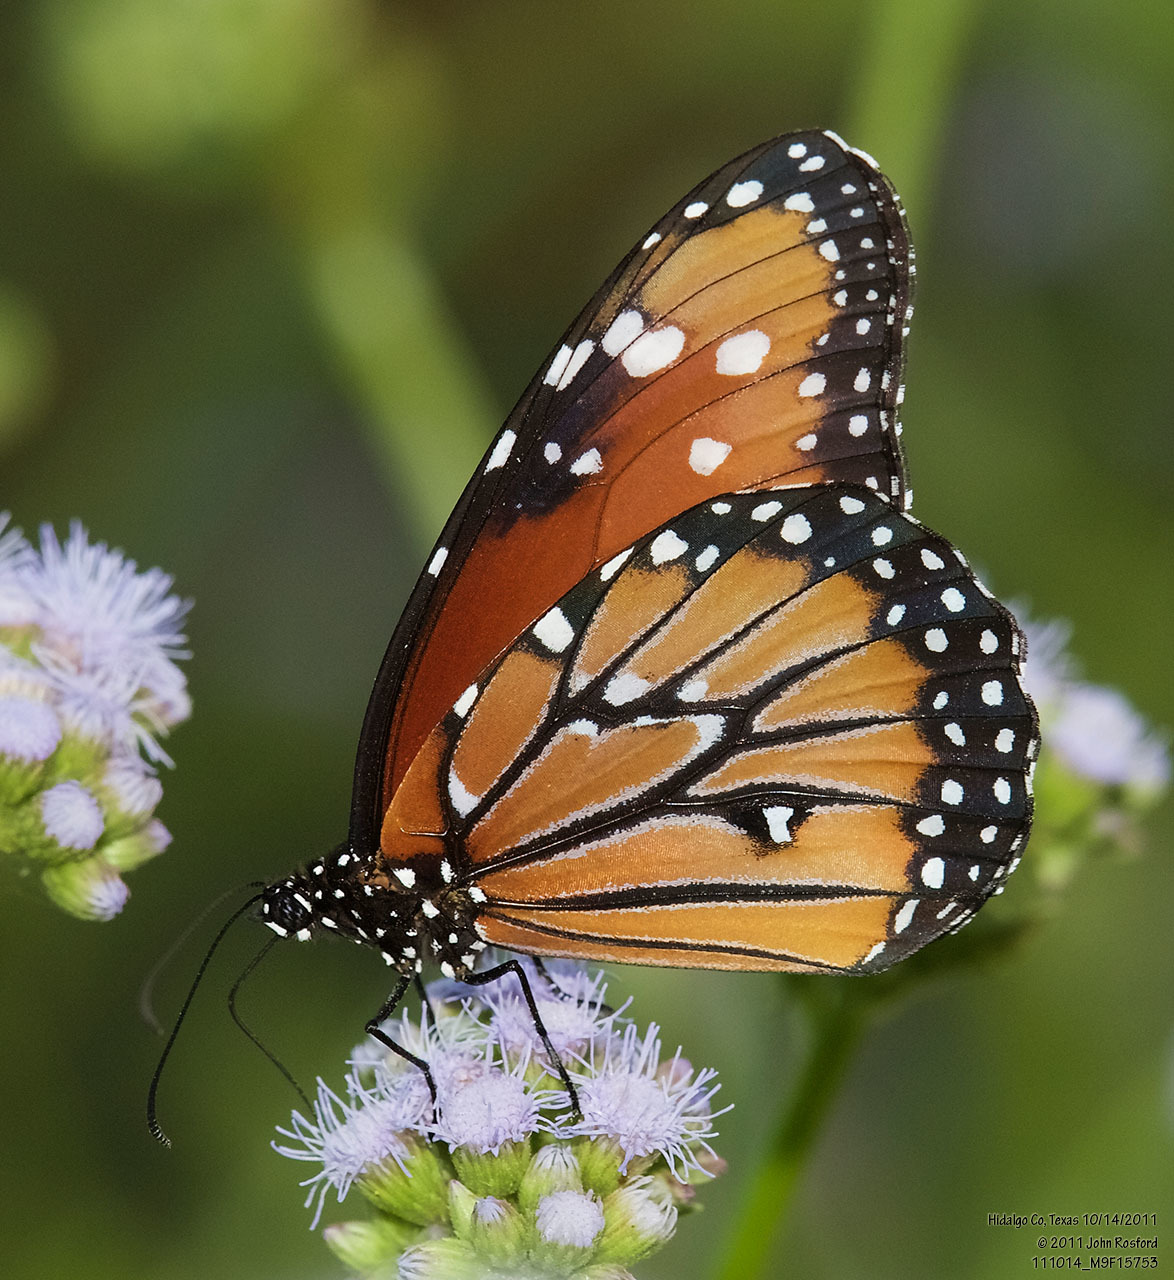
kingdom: Animalia
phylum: Arthropoda
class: Insecta
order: Lepidoptera
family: Nymphalidae
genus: Danaus
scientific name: Danaus gilippus
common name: Queen
